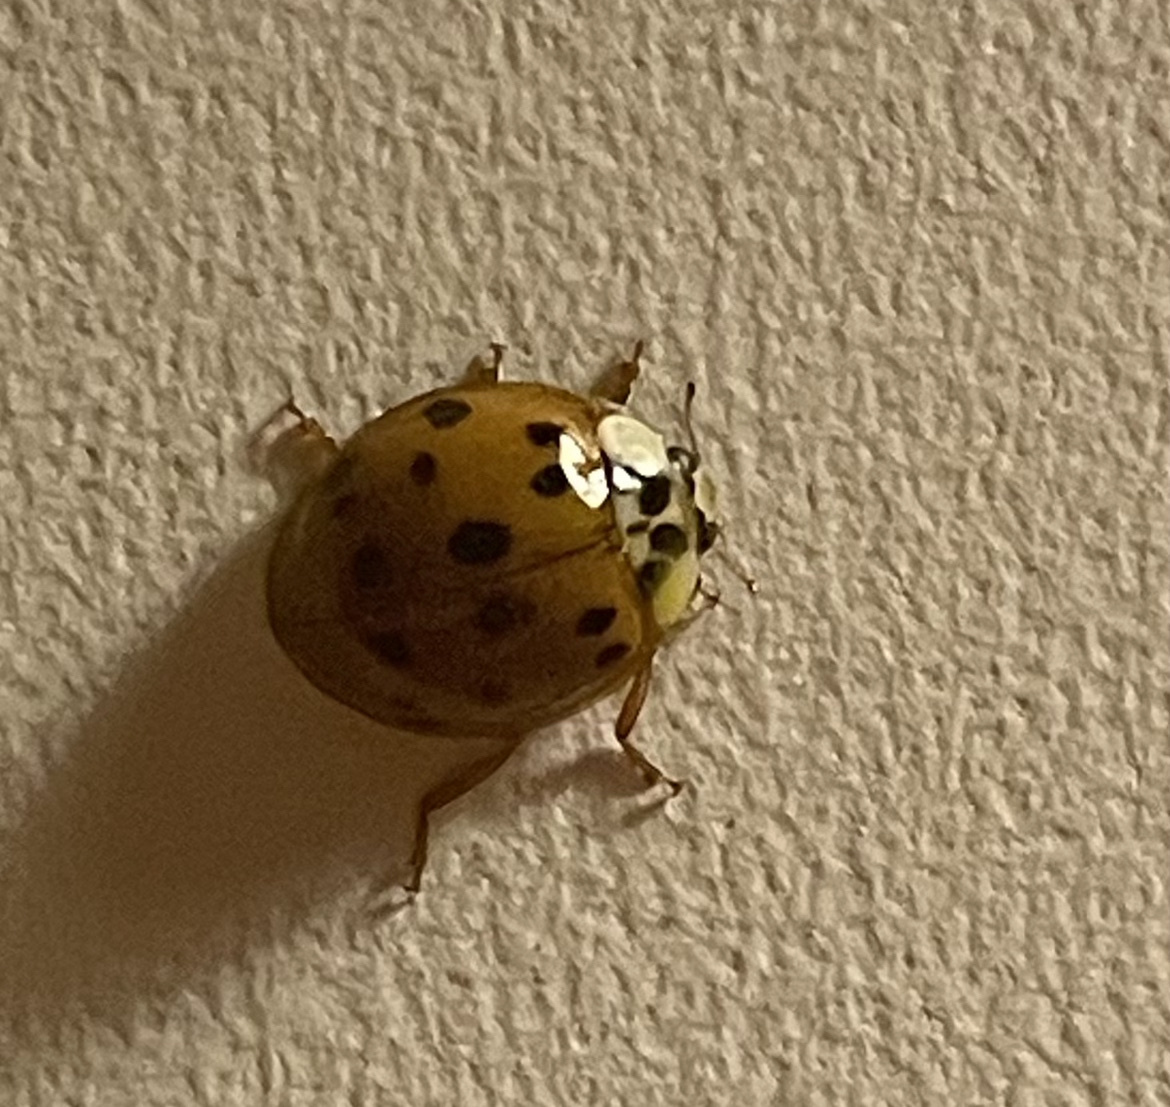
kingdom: Animalia
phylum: Arthropoda
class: Insecta
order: Coleoptera
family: Coccinellidae
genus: Harmonia
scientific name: Harmonia axyridis
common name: Harlequin ladybird
